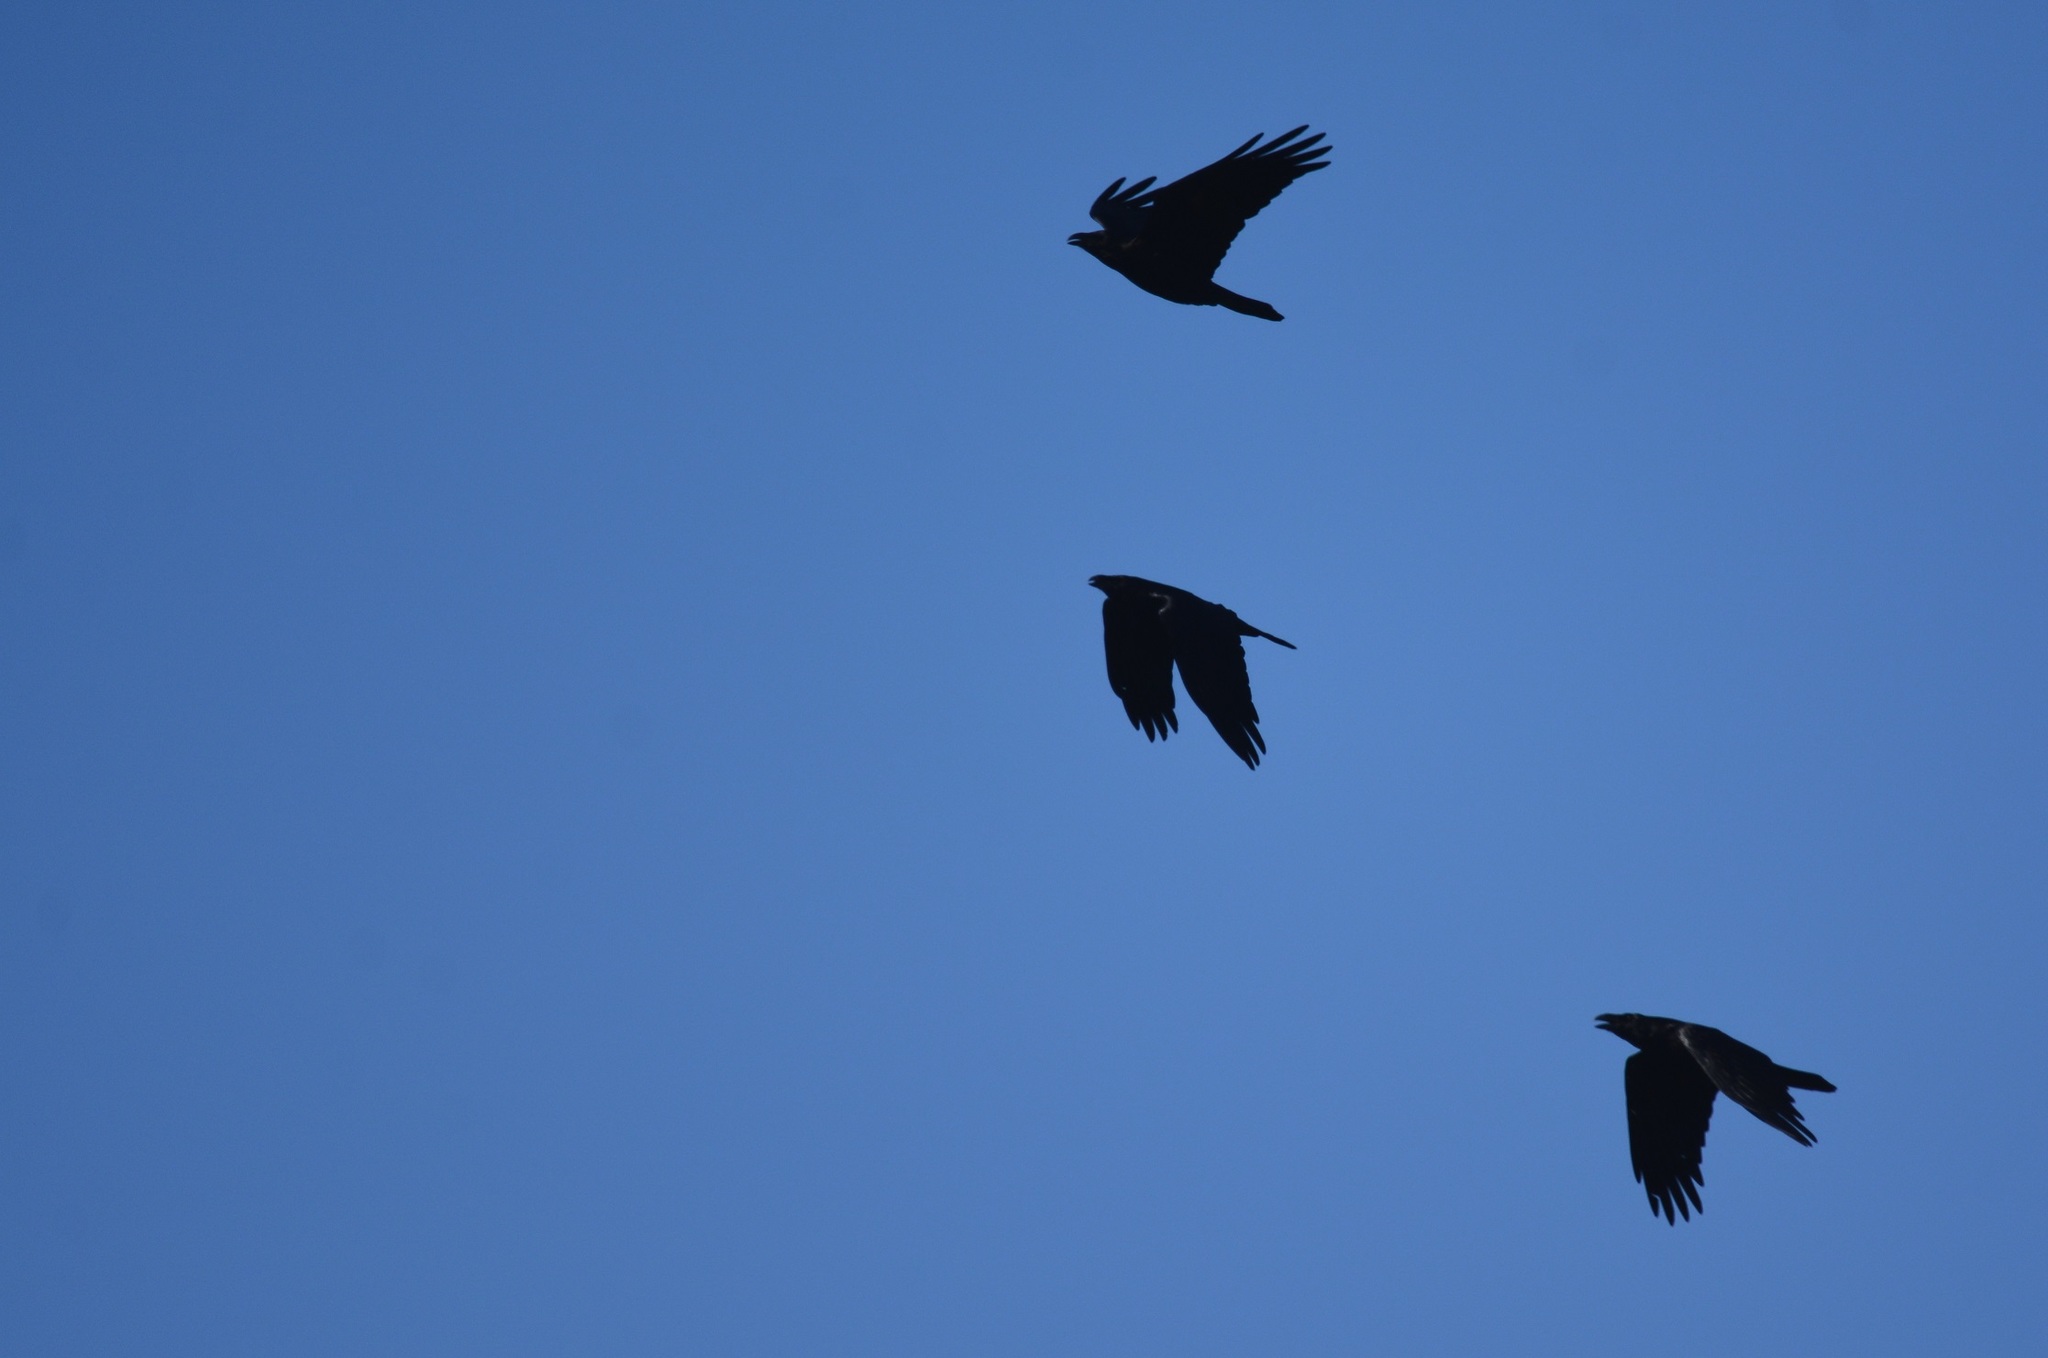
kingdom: Animalia
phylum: Chordata
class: Aves
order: Passeriformes
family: Corvidae
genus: Corvus
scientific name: Corvus corax
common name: Common raven
